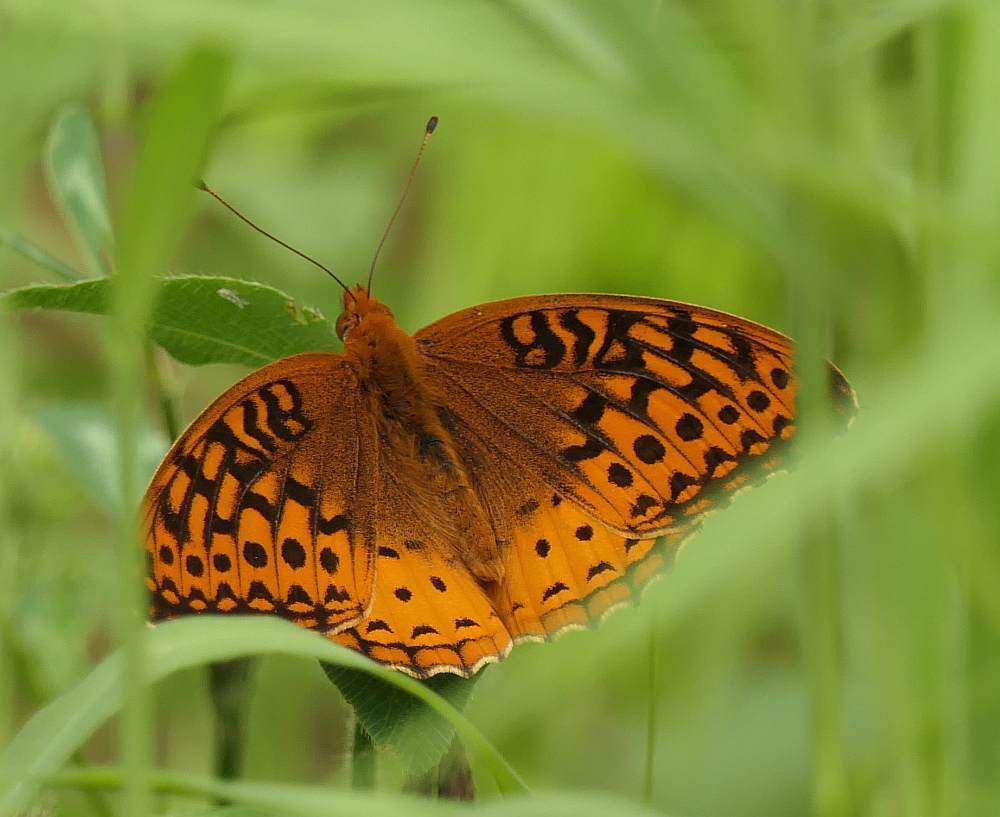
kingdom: Animalia
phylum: Arthropoda
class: Insecta
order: Lepidoptera
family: Nymphalidae
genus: Speyeria
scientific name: Speyeria cybele
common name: Great spangled fritillary
